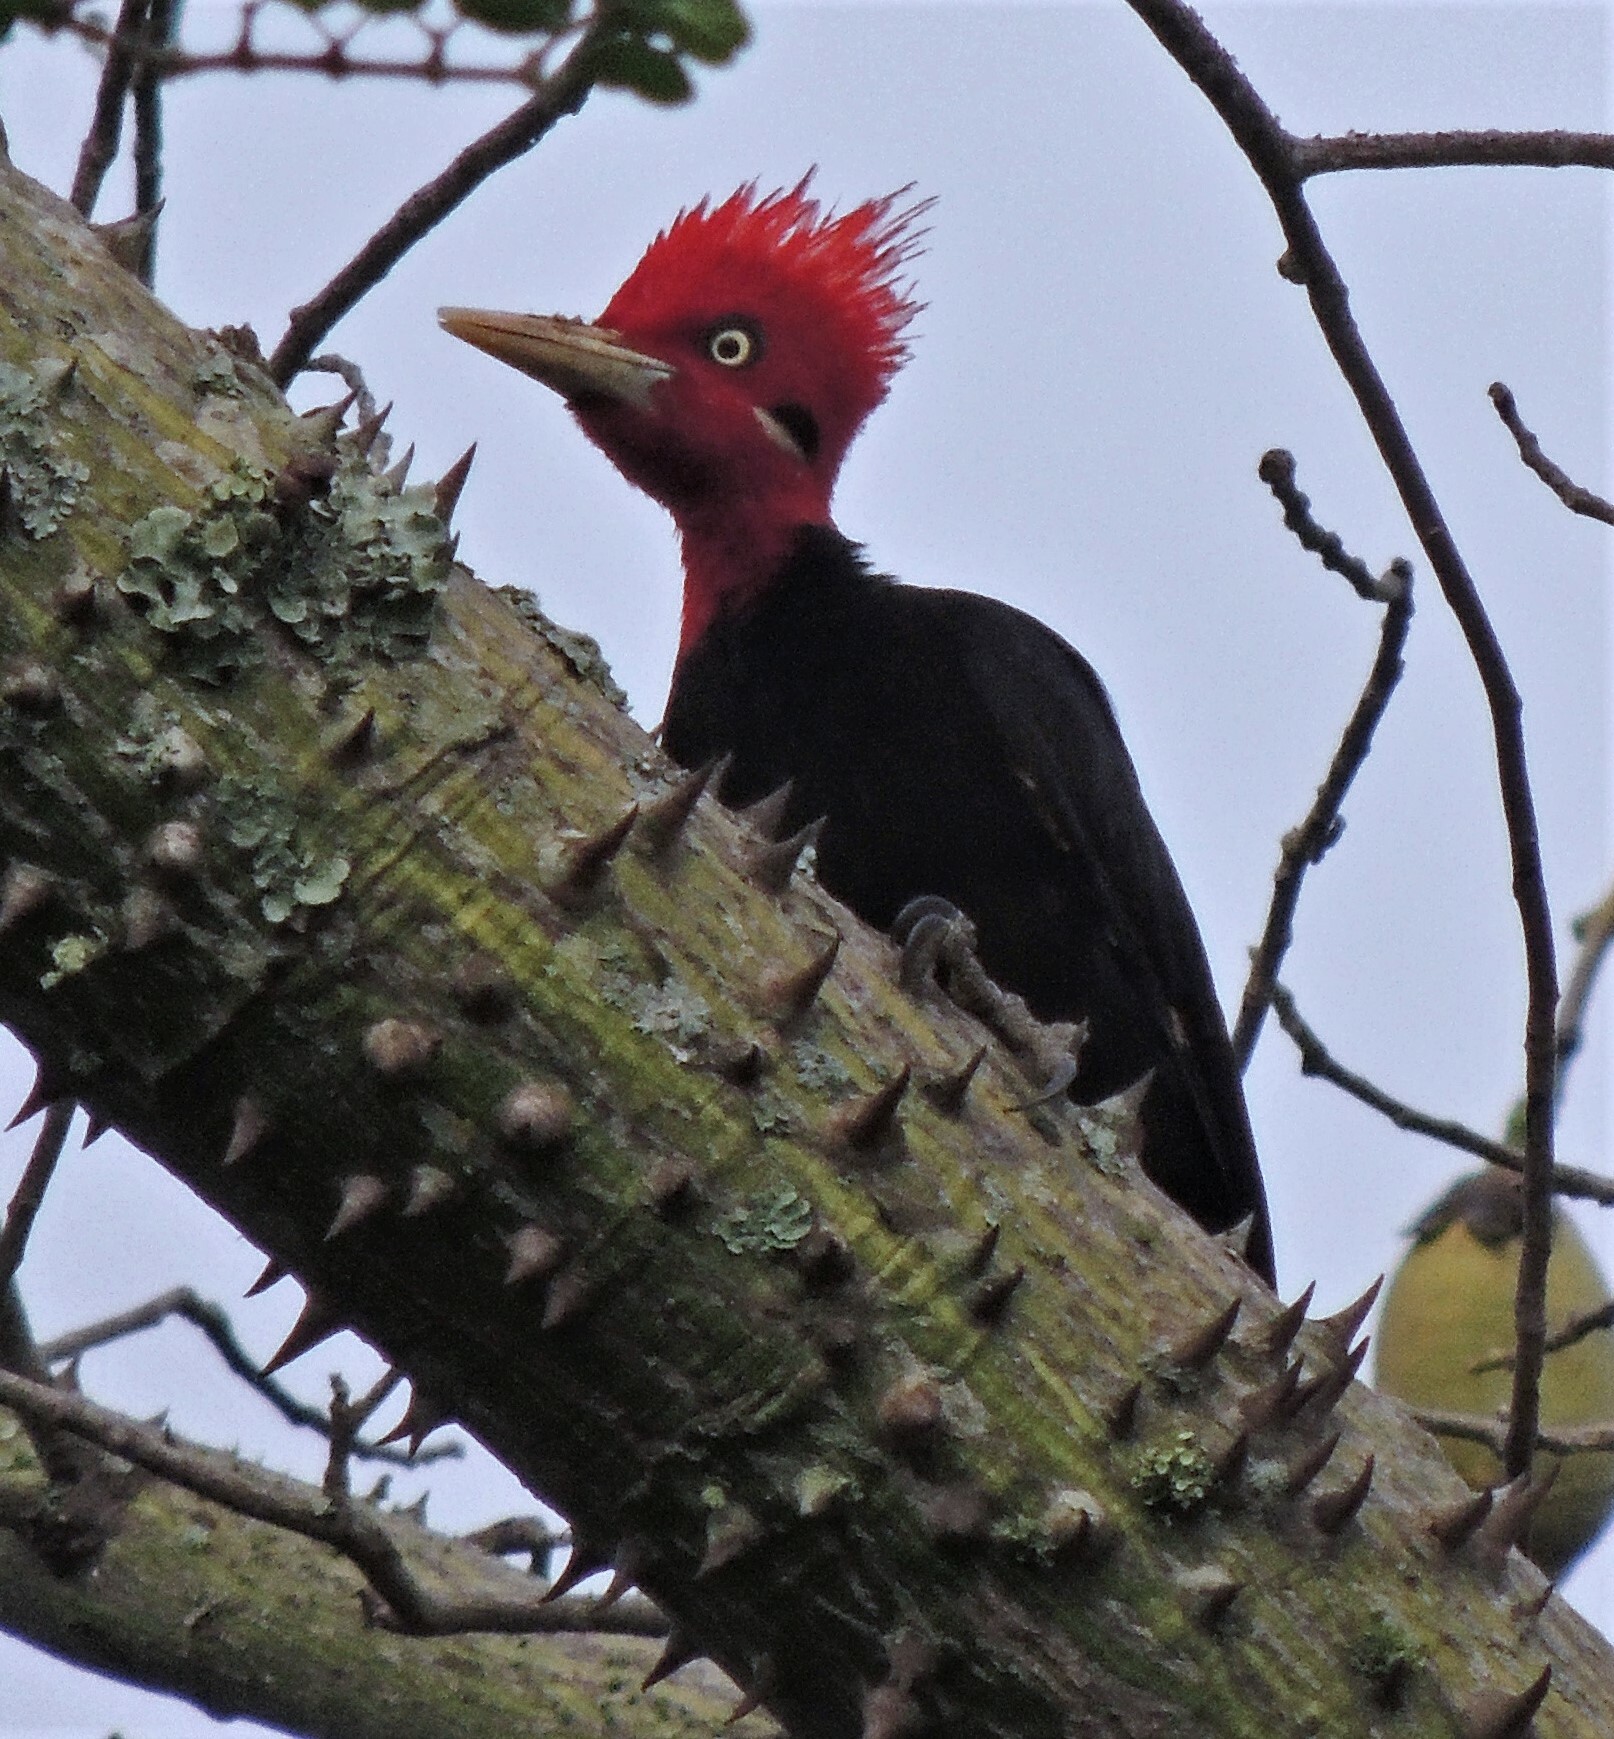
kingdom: Animalia
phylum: Chordata
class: Aves
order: Piciformes
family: Picidae
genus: Campephilus
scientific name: Campephilus leucopogon
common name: Cream-backed woodpecker
